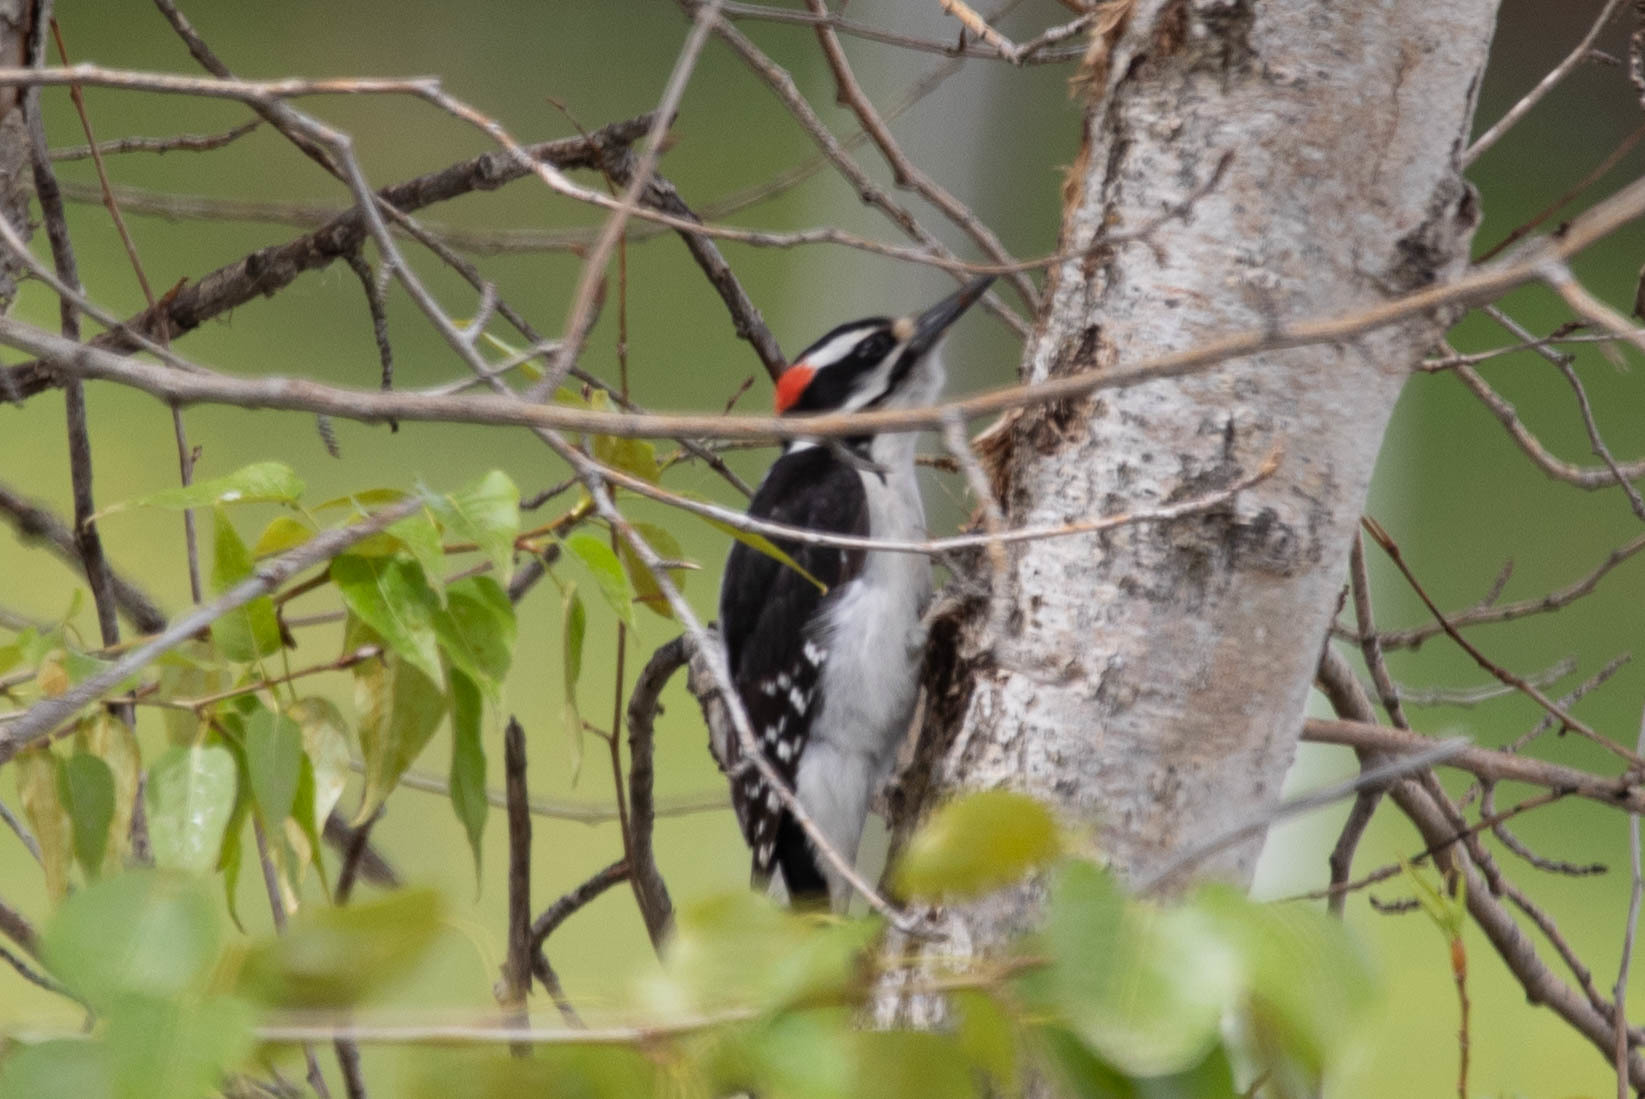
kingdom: Animalia
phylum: Chordata
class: Aves
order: Piciformes
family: Picidae
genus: Leuconotopicus
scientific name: Leuconotopicus villosus
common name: Hairy woodpecker
